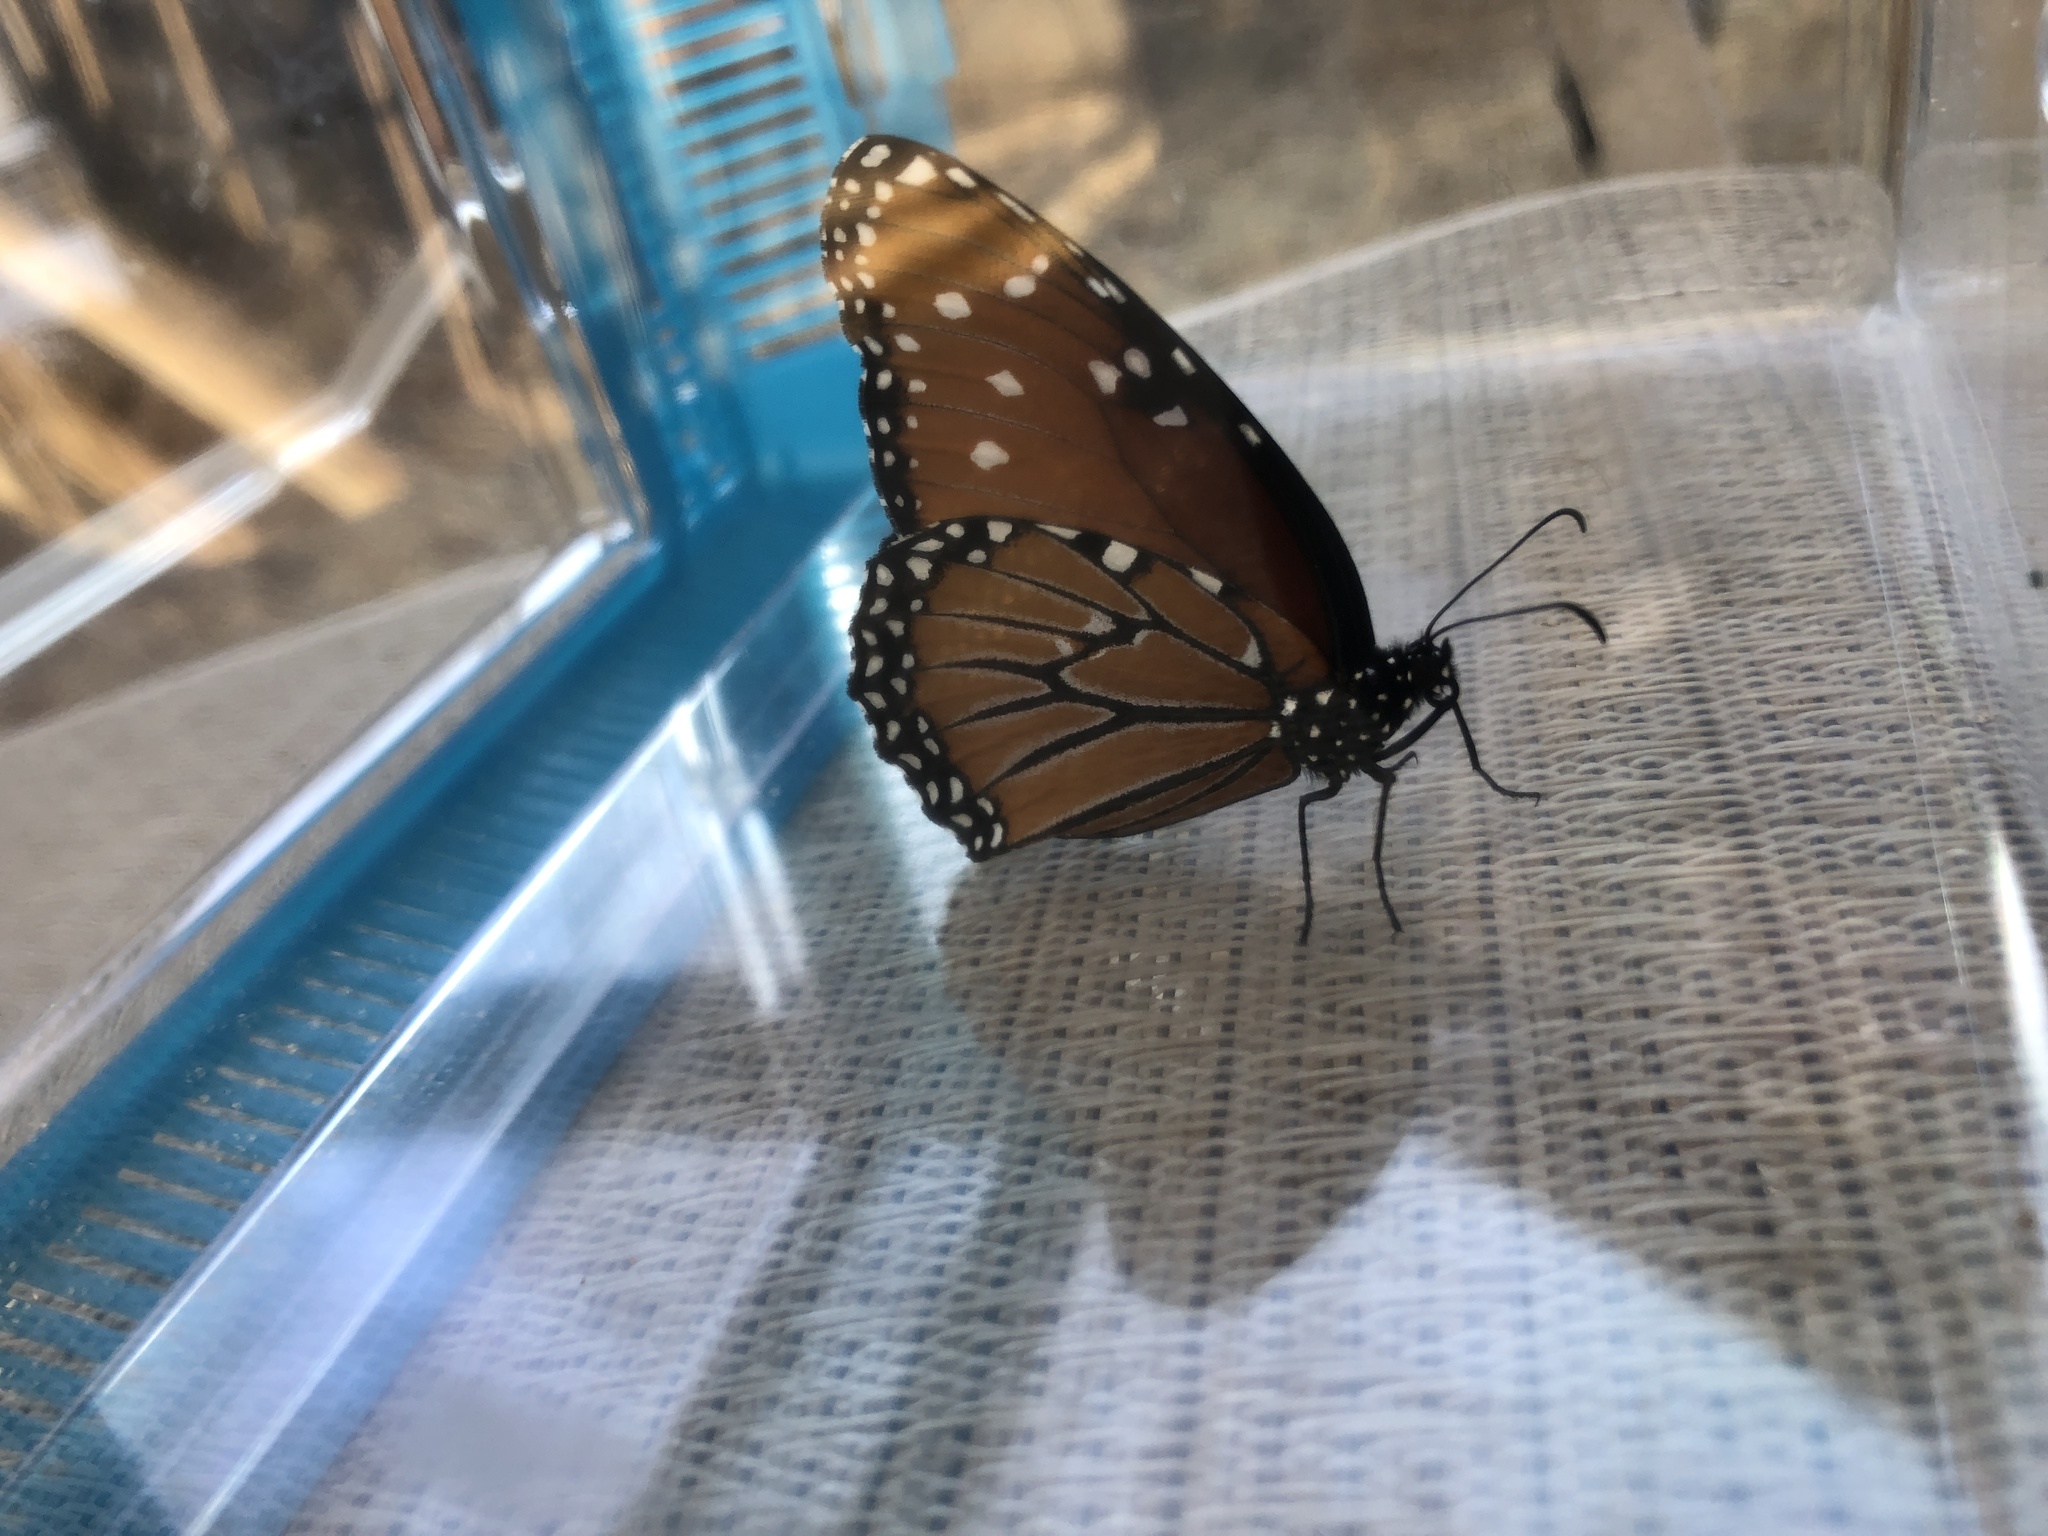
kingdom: Animalia
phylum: Arthropoda
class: Insecta
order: Lepidoptera
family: Nymphalidae
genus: Danaus
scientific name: Danaus gilippus
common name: Queen
